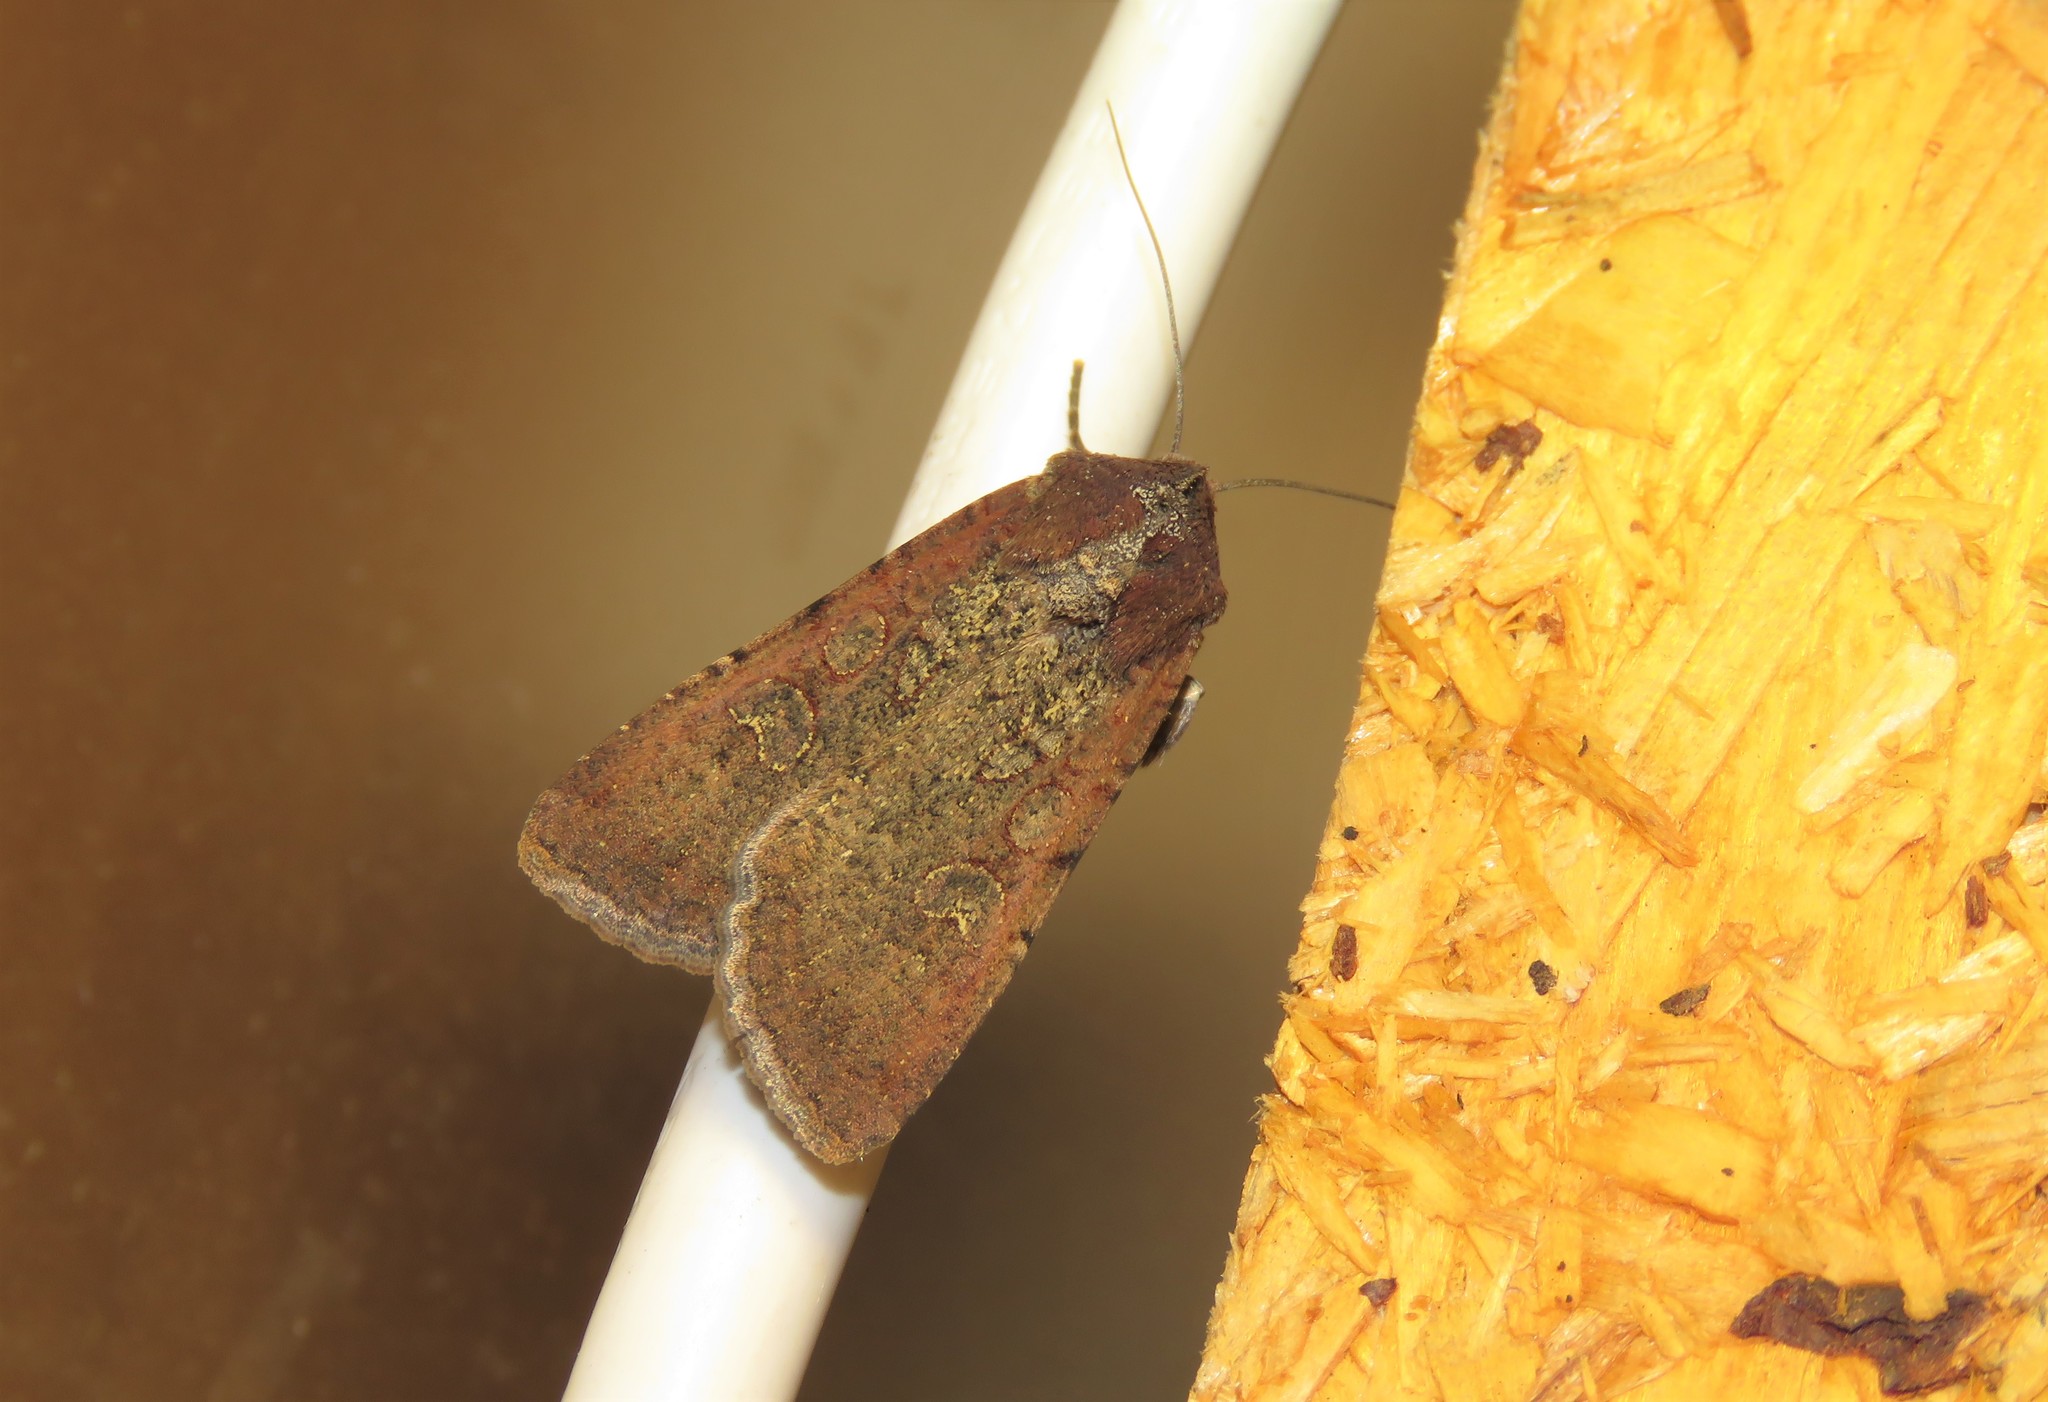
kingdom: Animalia
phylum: Arthropoda
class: Insecta
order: Lepidoptera
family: Noctuidae
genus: Peridroma
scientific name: Peridroma saucia
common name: Pearly underwing
